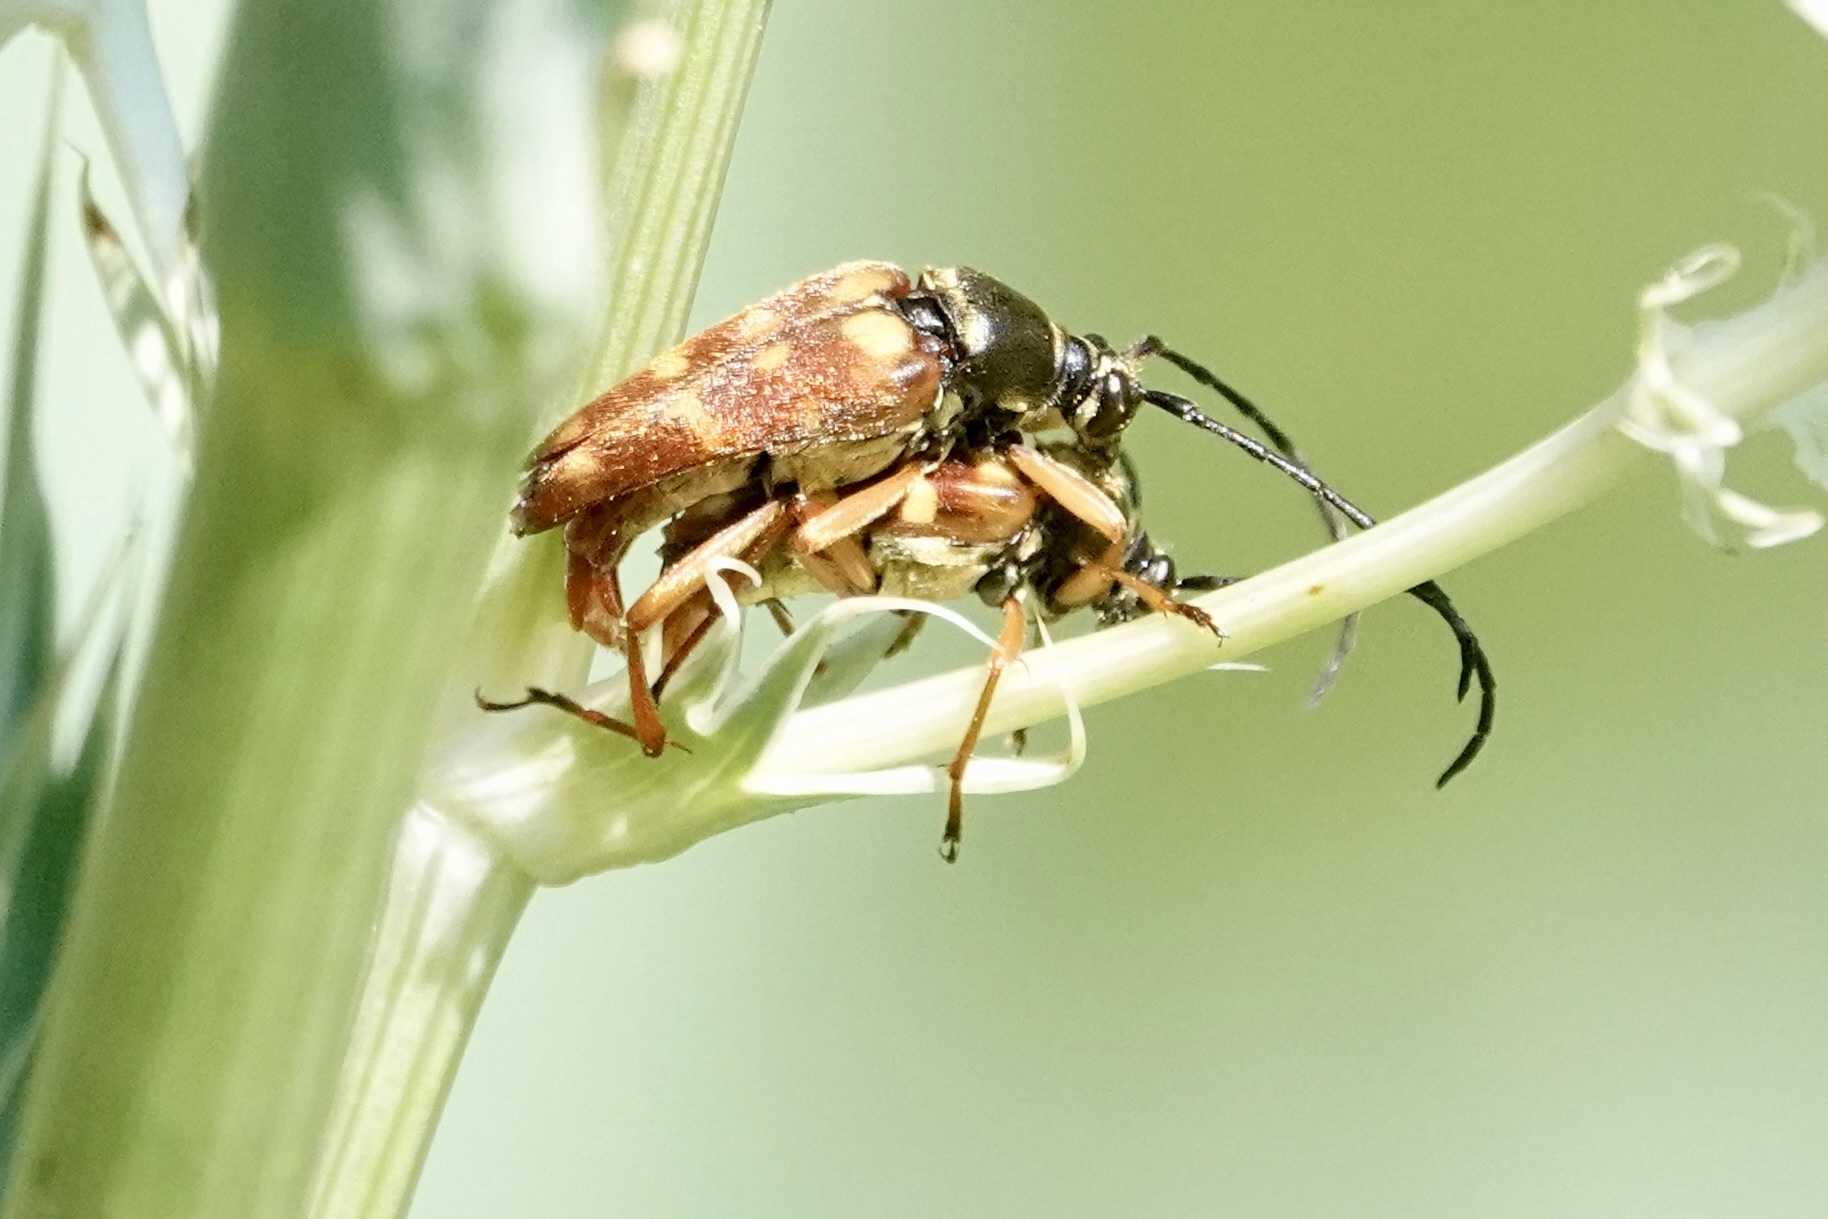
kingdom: Animalia
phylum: Arthropoda
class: Insecta
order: Coleoptera
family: Cerambycidae
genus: Typocerus
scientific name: Typocerus velutinus
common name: Banded longhorn beetle
